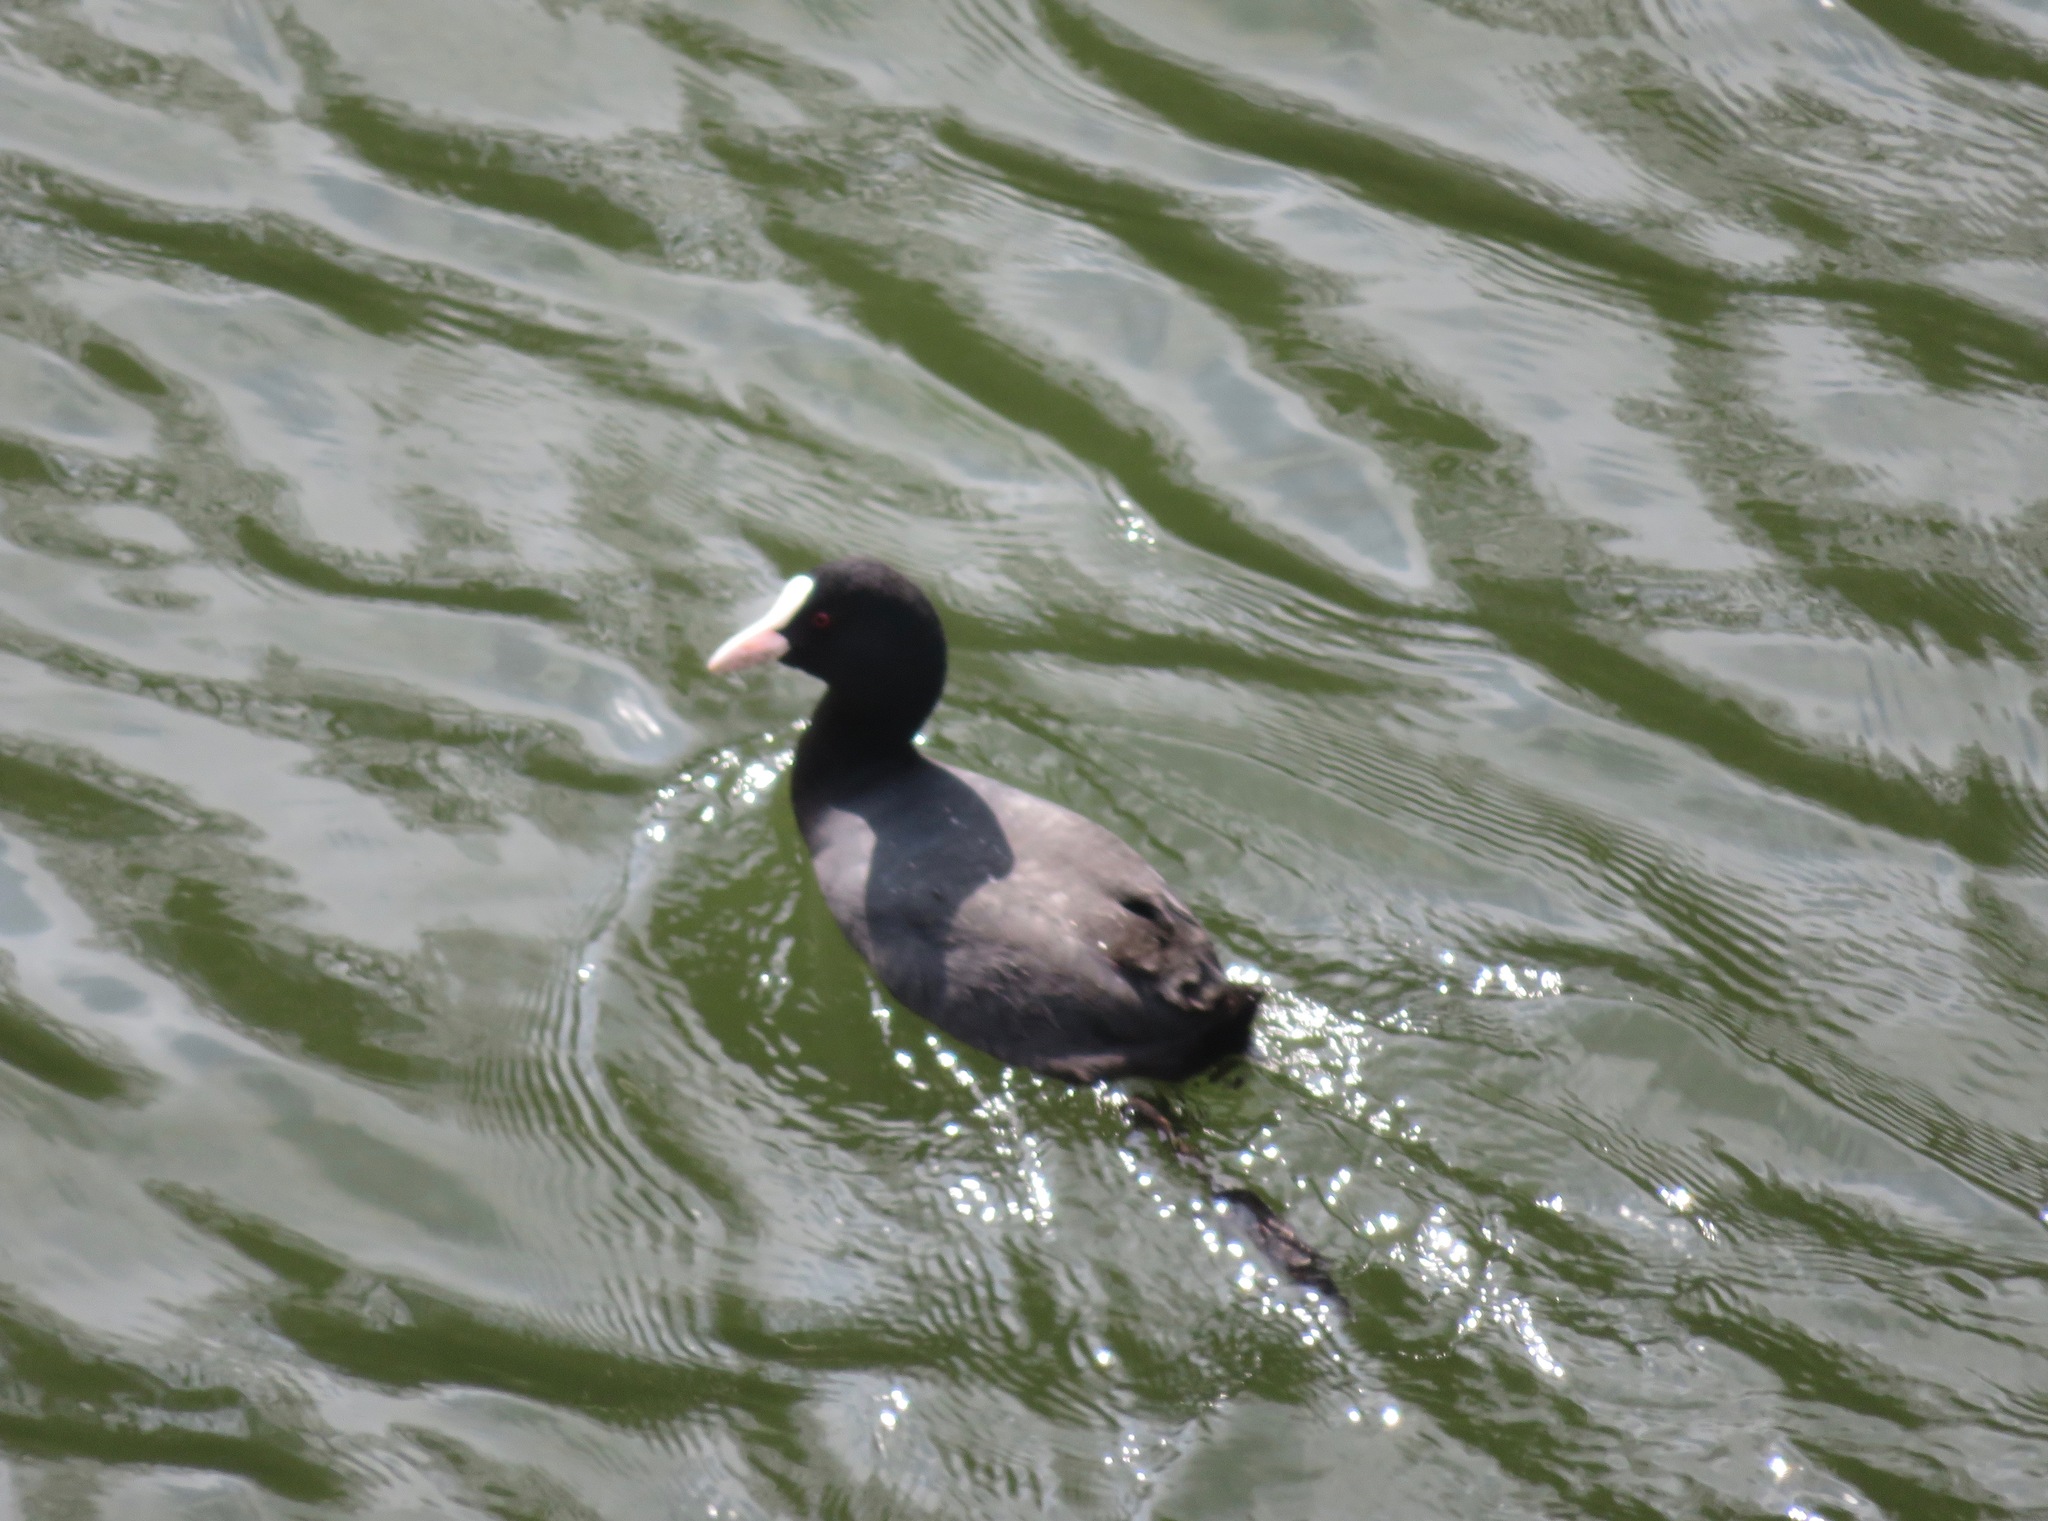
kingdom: Animalia
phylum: Chordata
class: Aves
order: Gruiformes
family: Rallidae
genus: Fulica
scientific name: Fulica atra
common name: Eurasian coot
